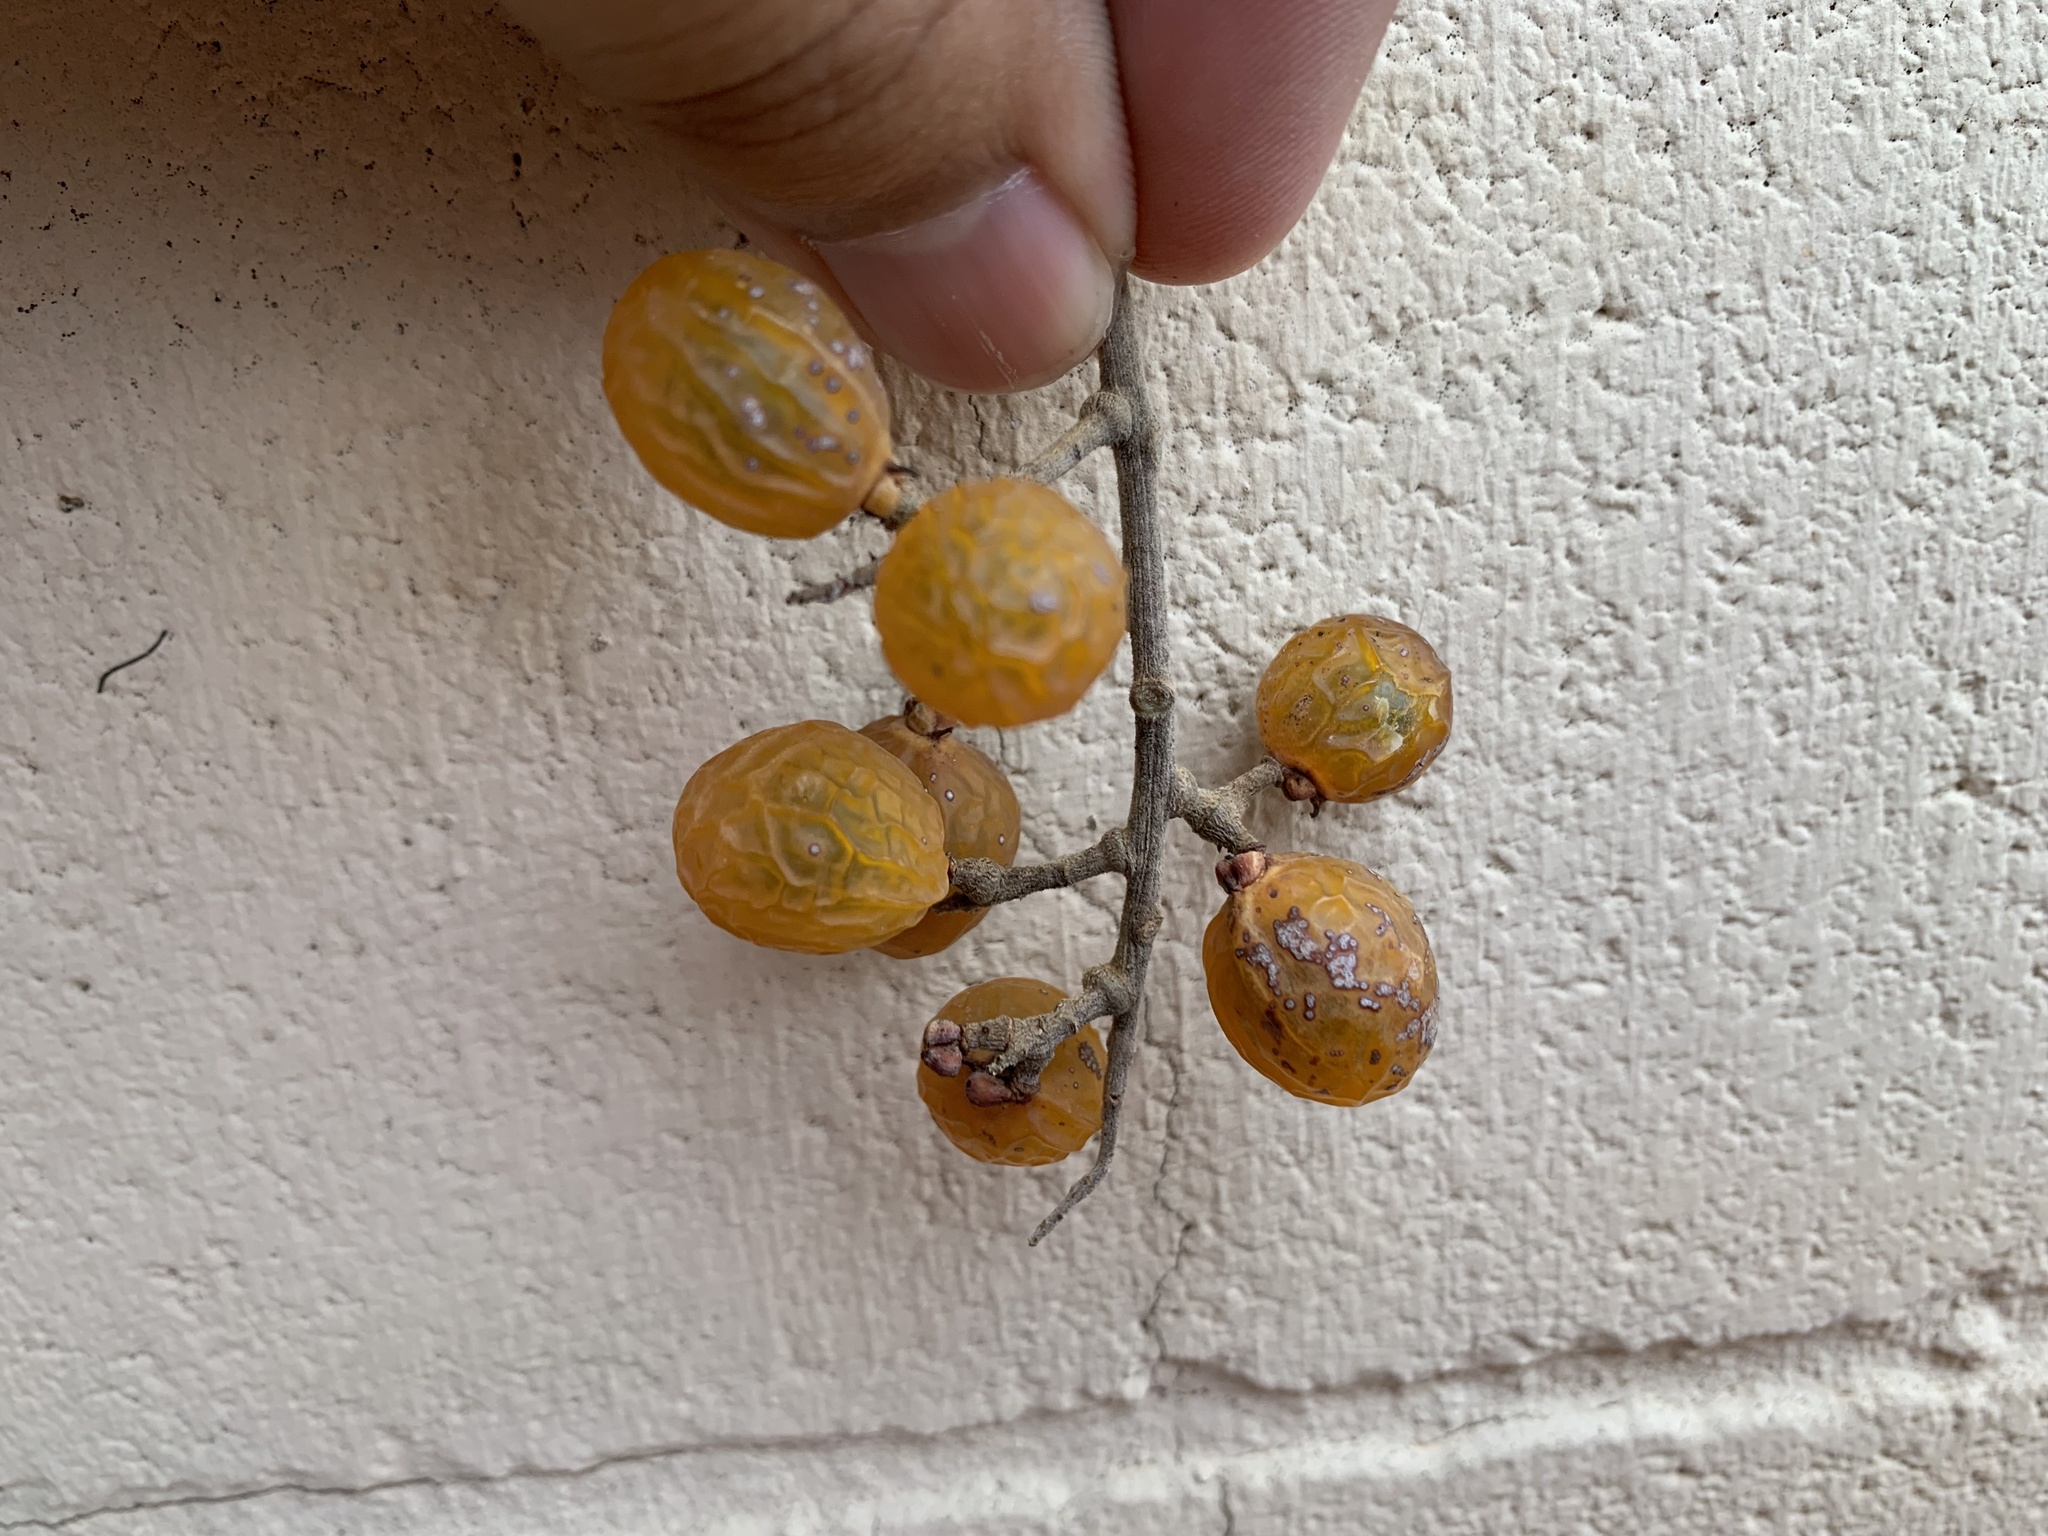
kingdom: Plantae
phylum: Tracheophyta
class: Magnoliopsida
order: Sapindales
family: Sapindaceae
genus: Sapindus
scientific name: Sapindus drummondii
